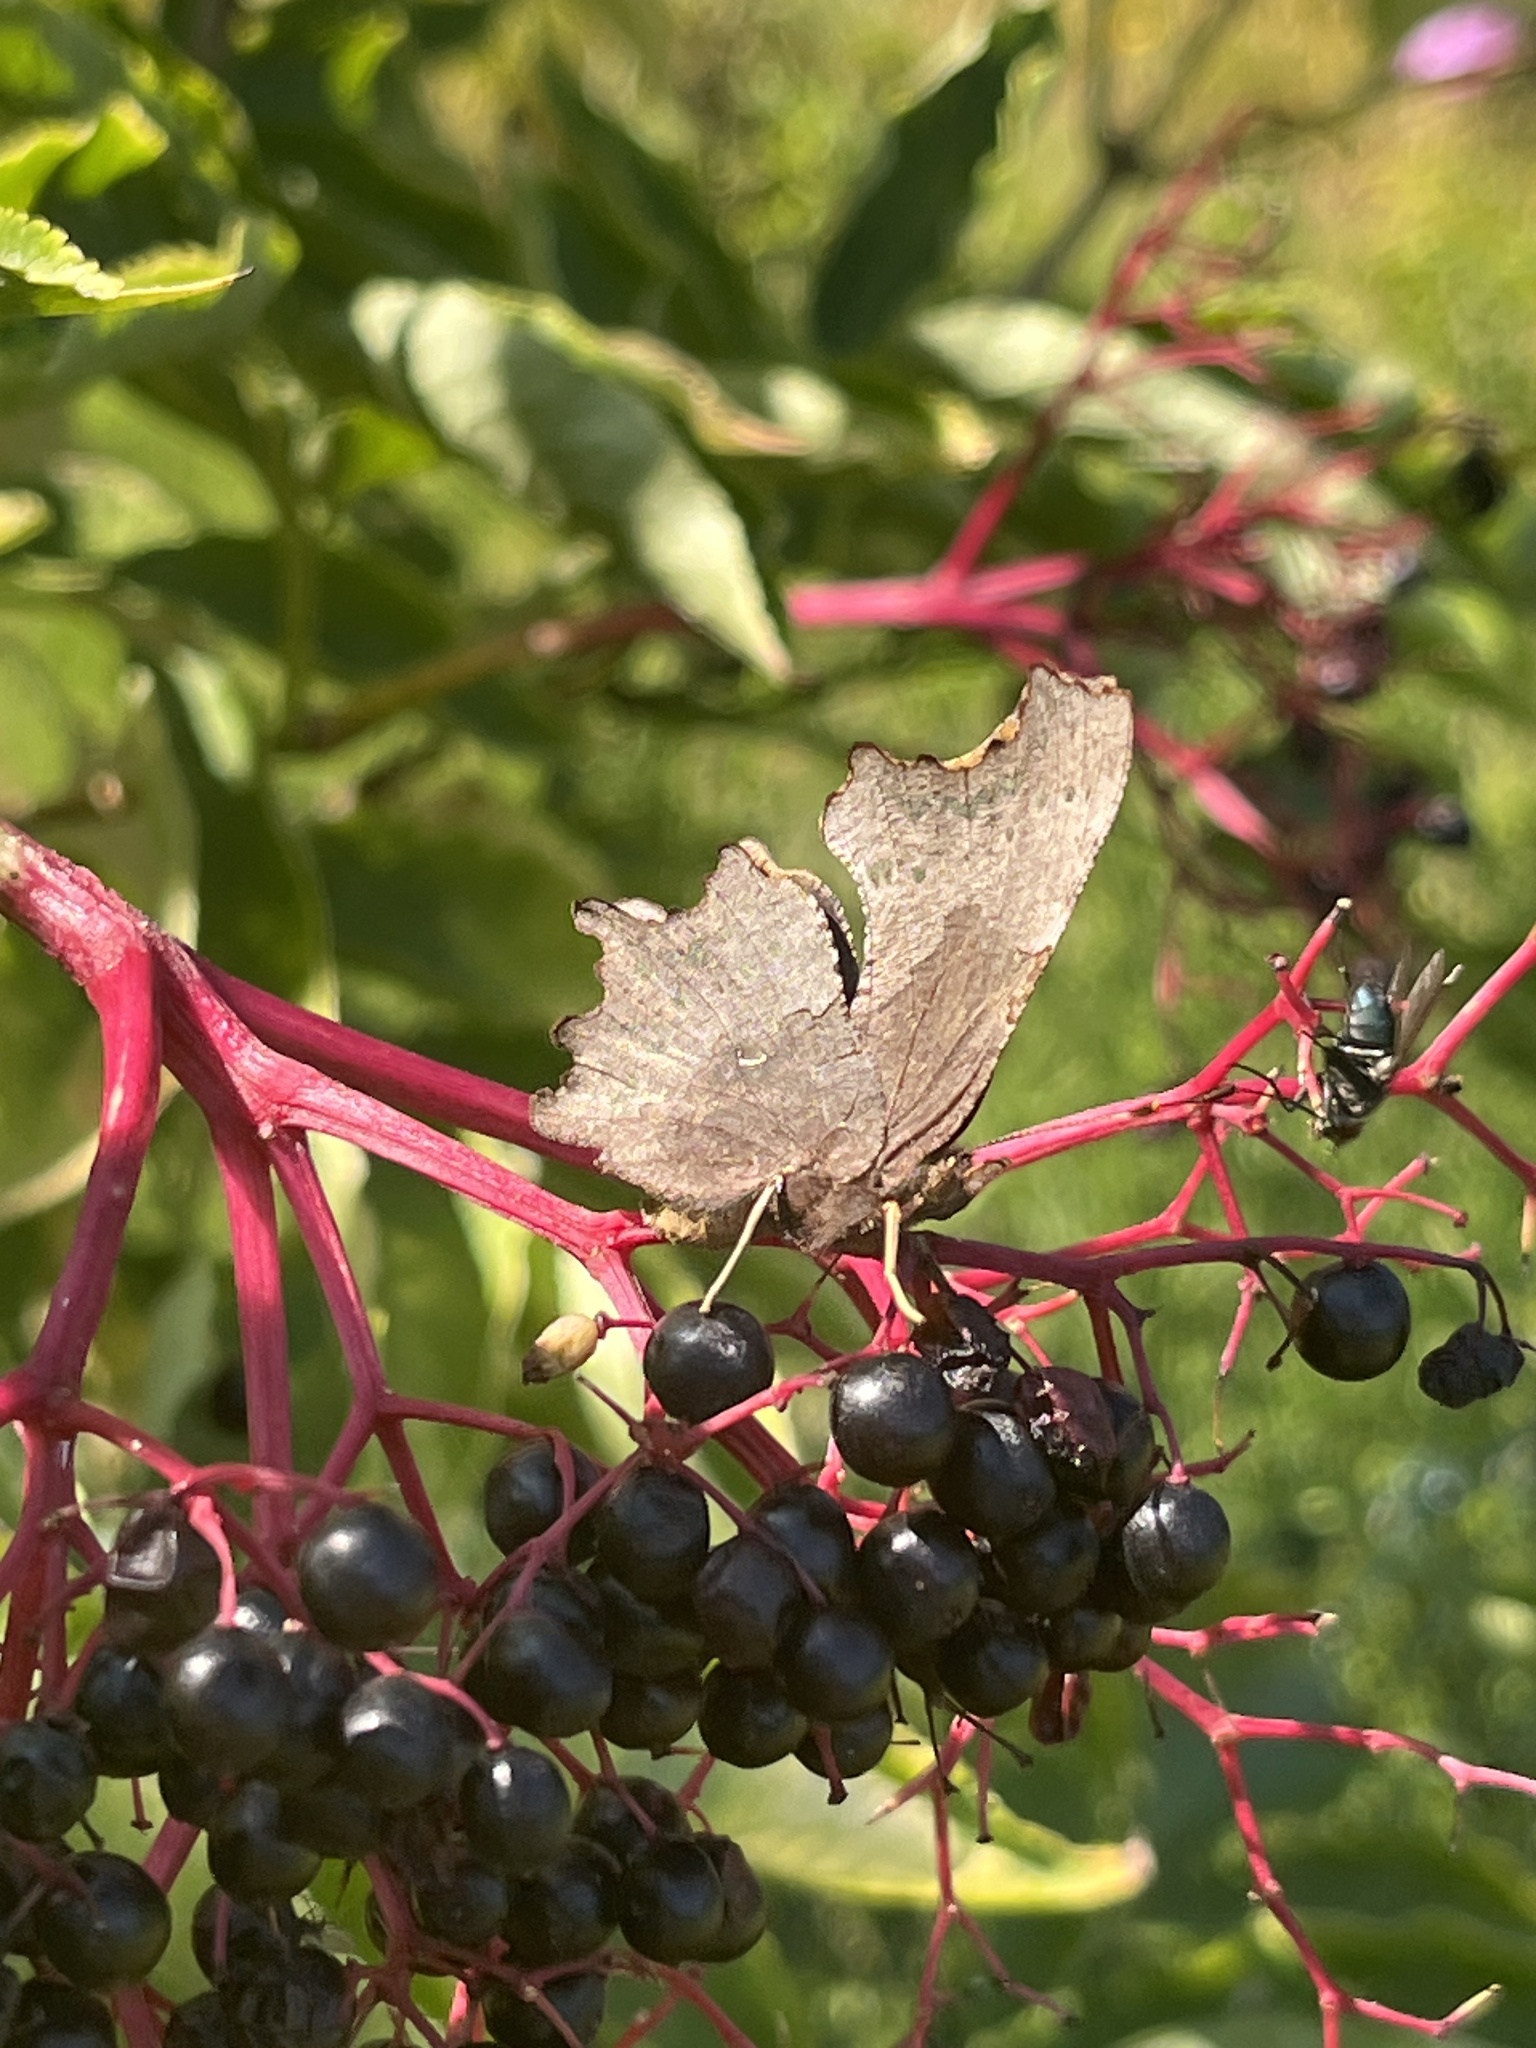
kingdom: Animalia
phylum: Arthropoda
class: Insecta
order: Lepidoptera
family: Nymphalidae
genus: Polygonia
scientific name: Polygonia c-album
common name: Comma
